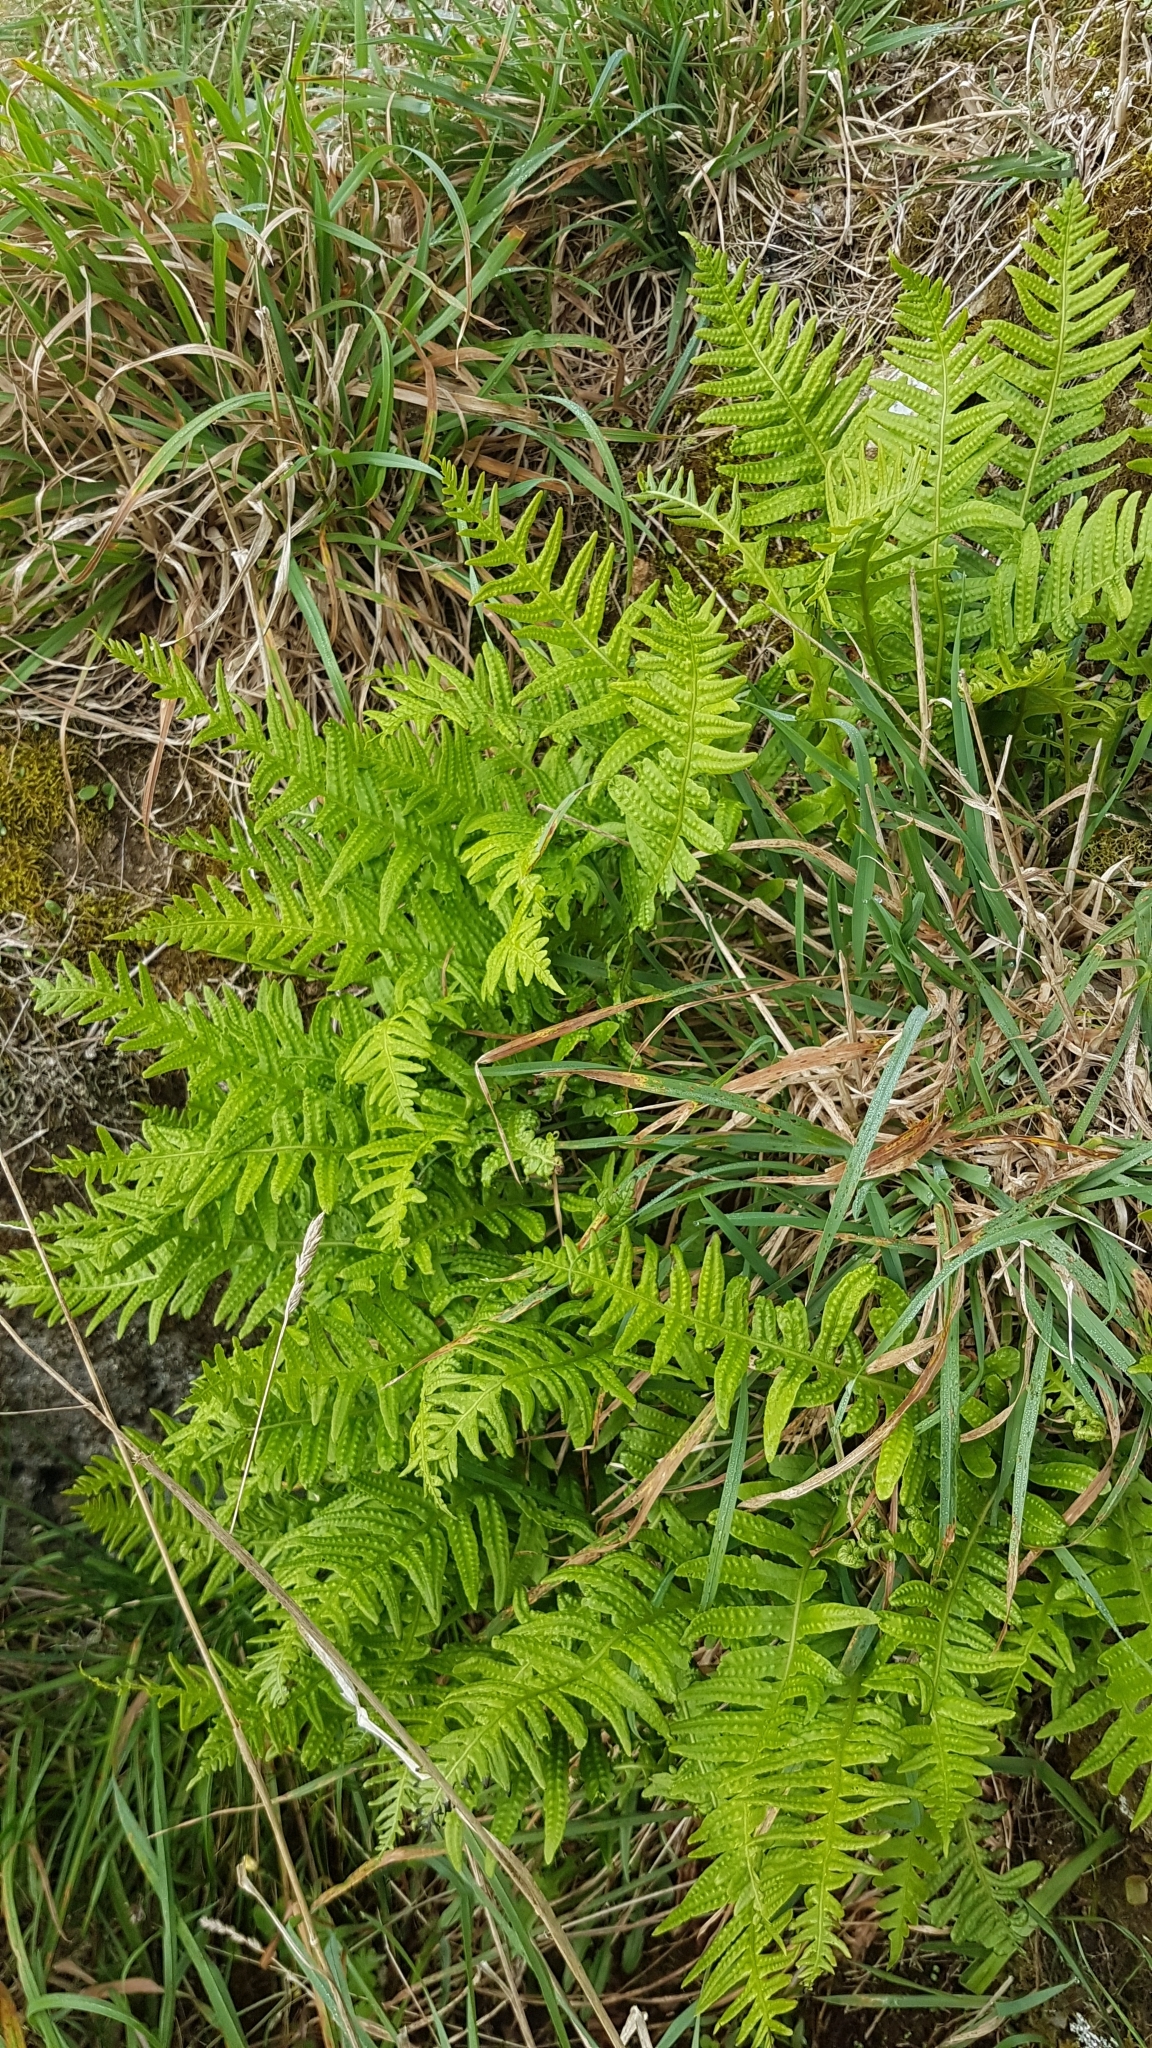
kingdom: Plantae
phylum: Tracheophyta
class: Polypodiopsida
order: Polypodiales
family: Polypodiaceae
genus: Polypodium
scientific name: Polypodium vulgare
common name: Common polypody
